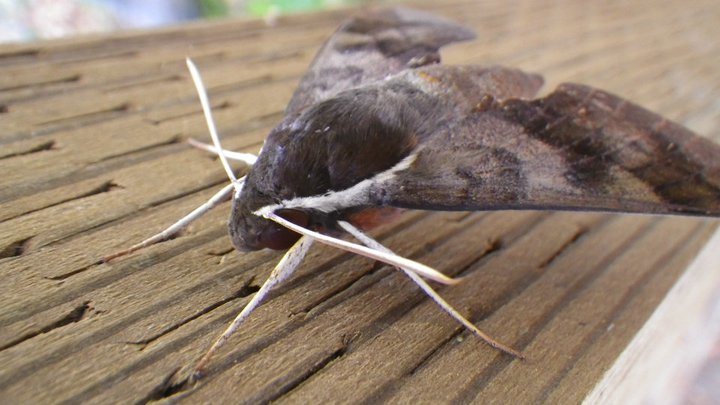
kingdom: Animalia
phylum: Arthropoda
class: Insecta
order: Lepidoptera
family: Sphingidae
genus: Gnathothlibus
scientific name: Gnathothlibus erotus
